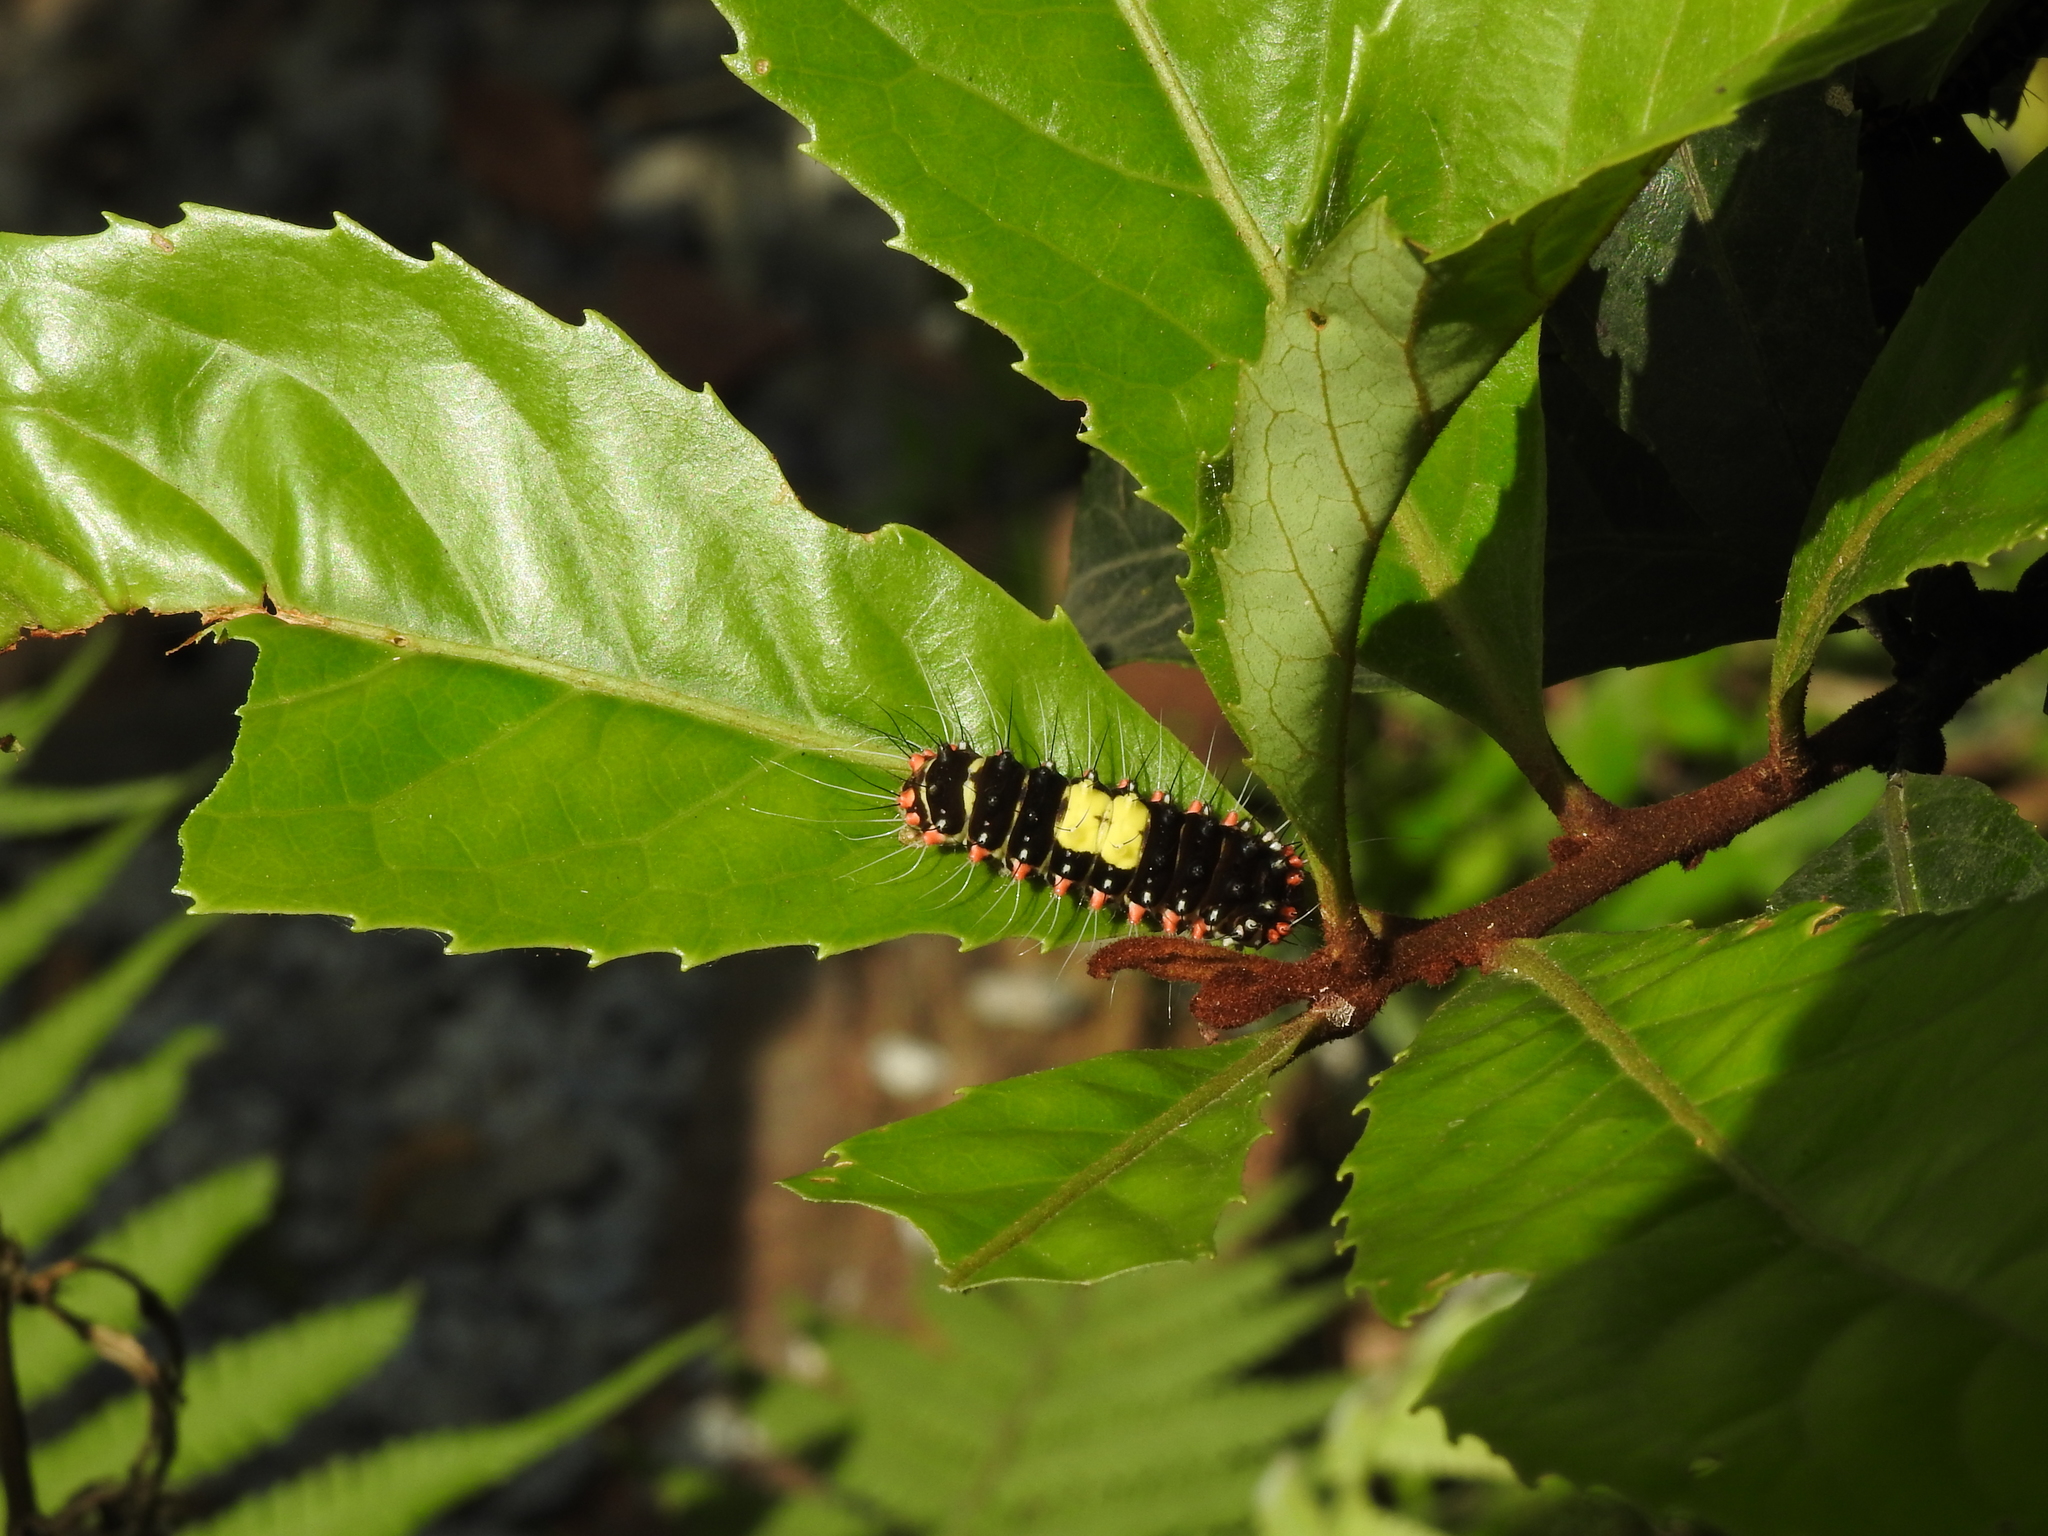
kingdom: Animalia
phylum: Arthropoda
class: Insecta
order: Lepidoptera
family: Zygaenidae
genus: Erasmia
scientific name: Erasmia pulchella
